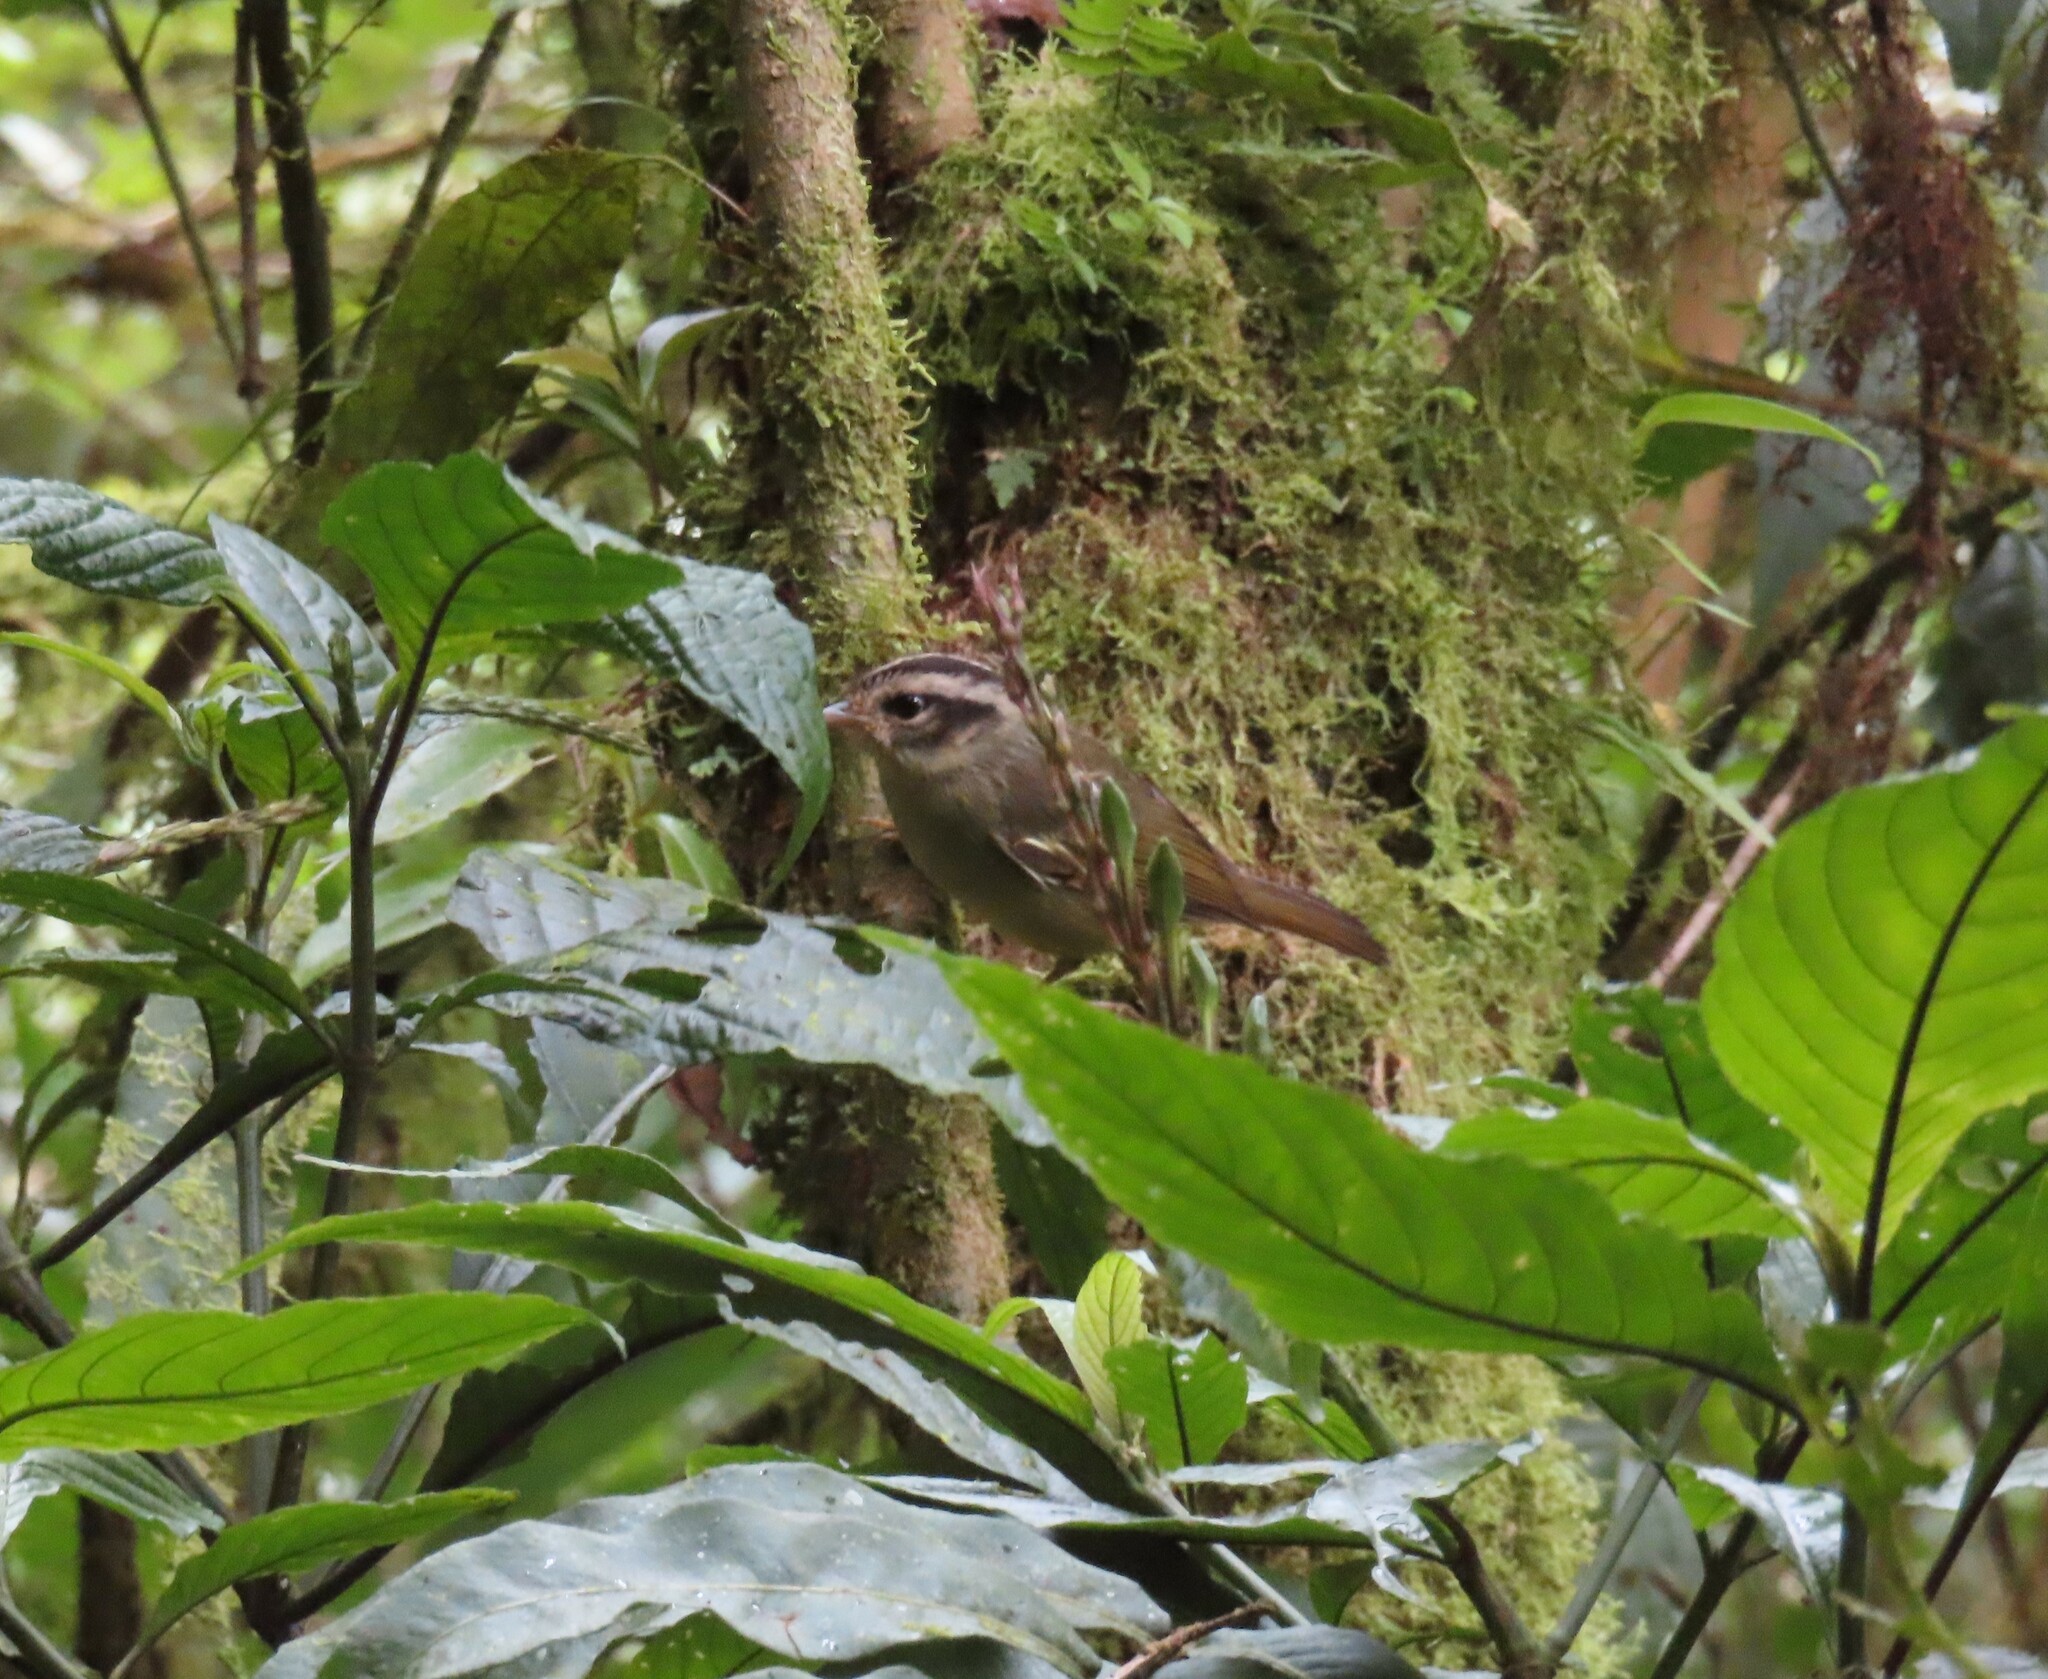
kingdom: Animalia
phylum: Chordata
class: Aves
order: Passeriformes
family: Parulidae
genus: Basileuterus
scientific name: Basileuterus melanotis
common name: Black-eared warbler
